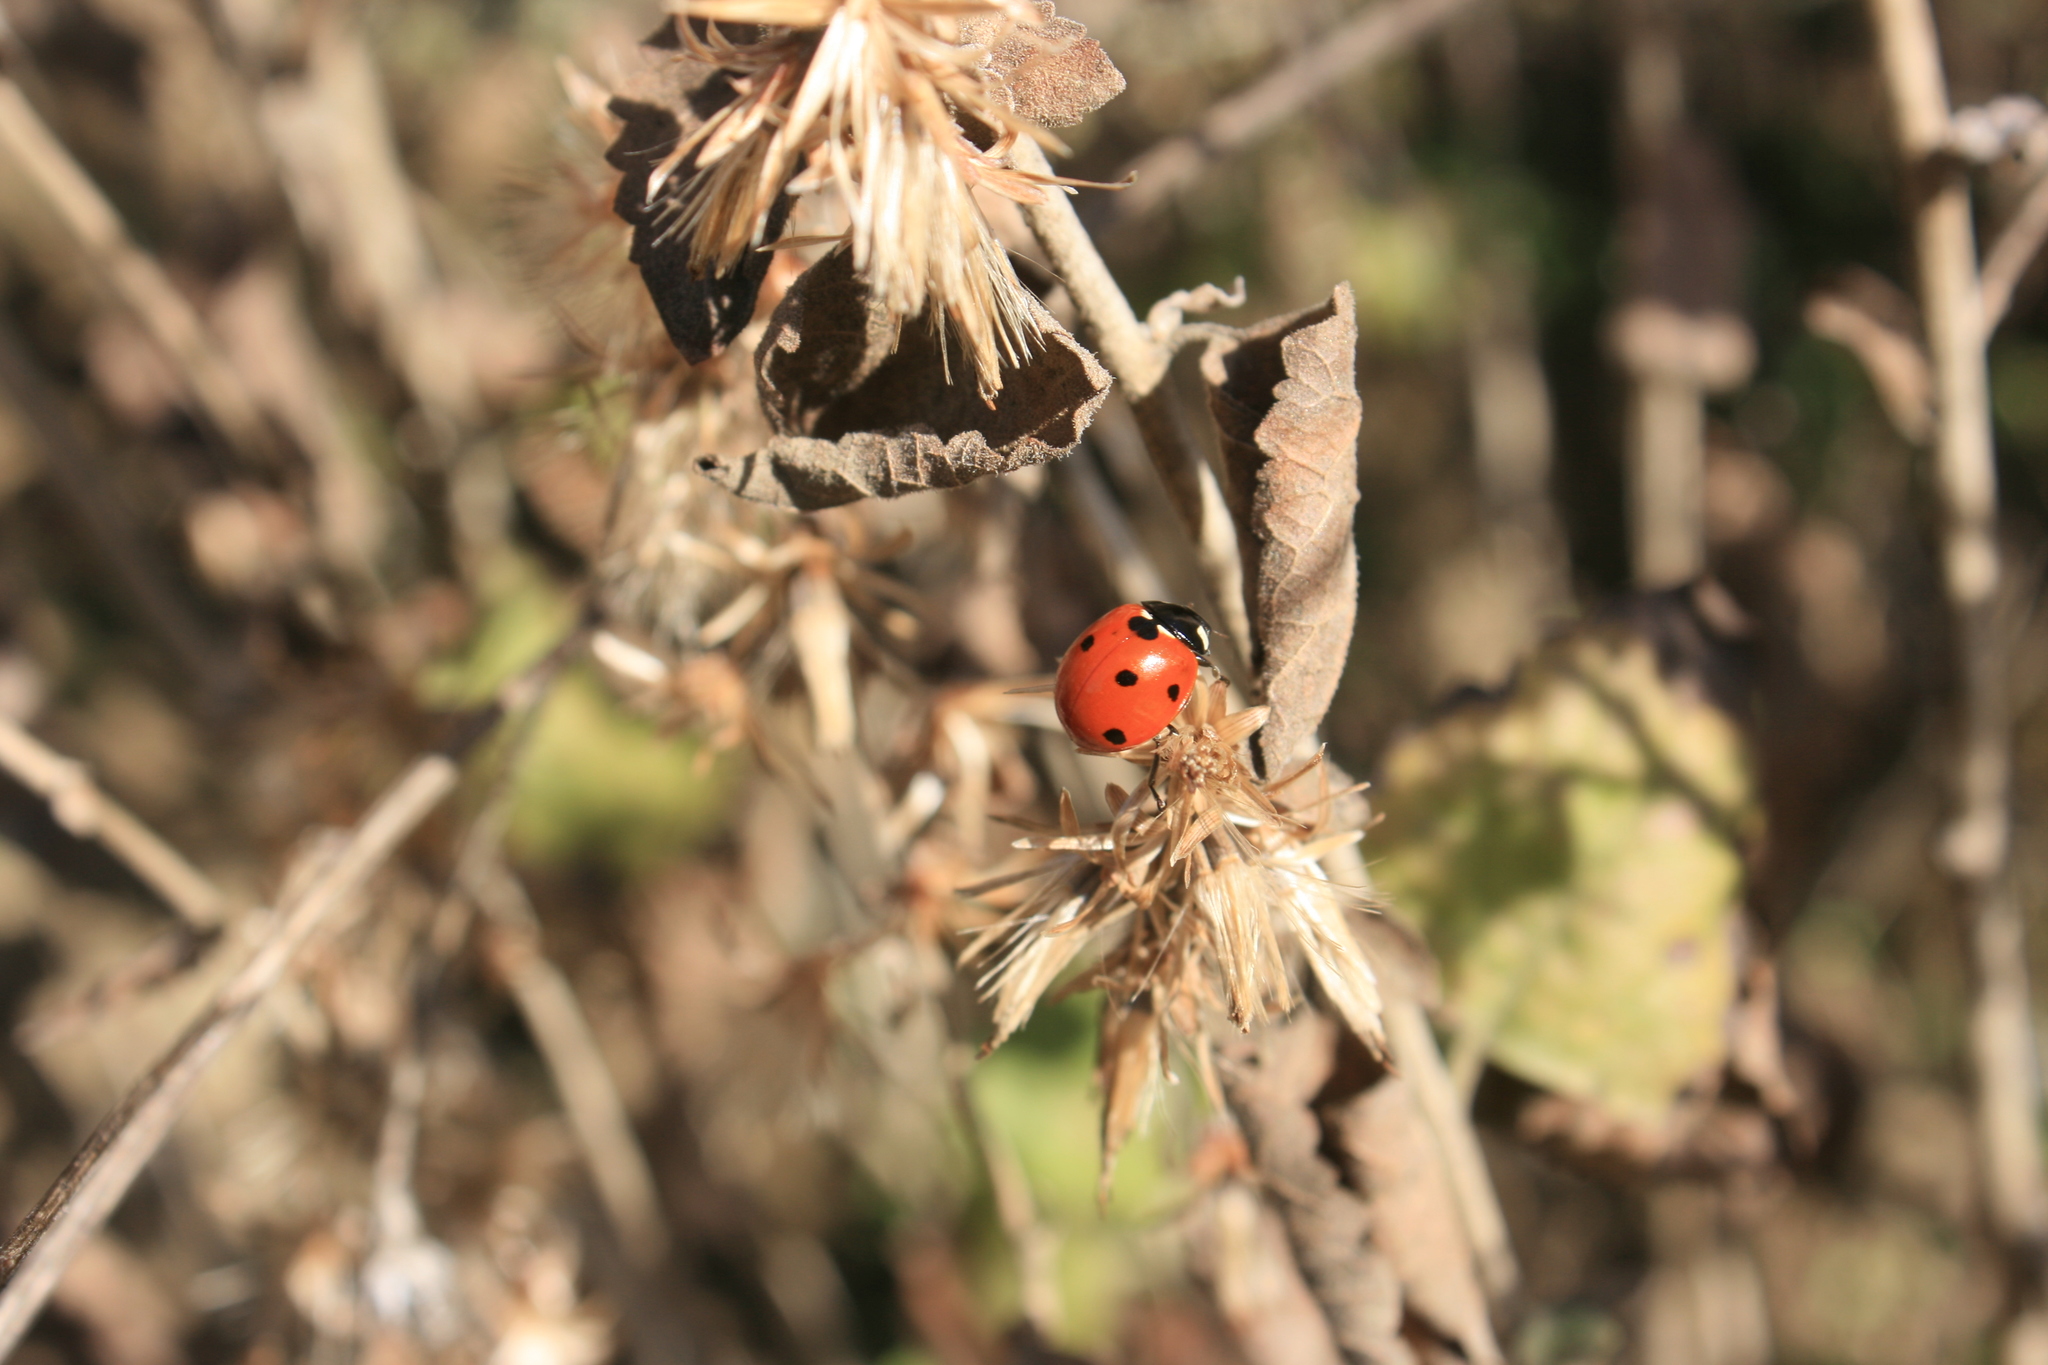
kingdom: Animalia
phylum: Arthropoda
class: Insecta
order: Coleoptera
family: Coccinellidae
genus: Coccinella
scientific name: Coccinella septempunctata
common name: Sevenspotted lady beetle
